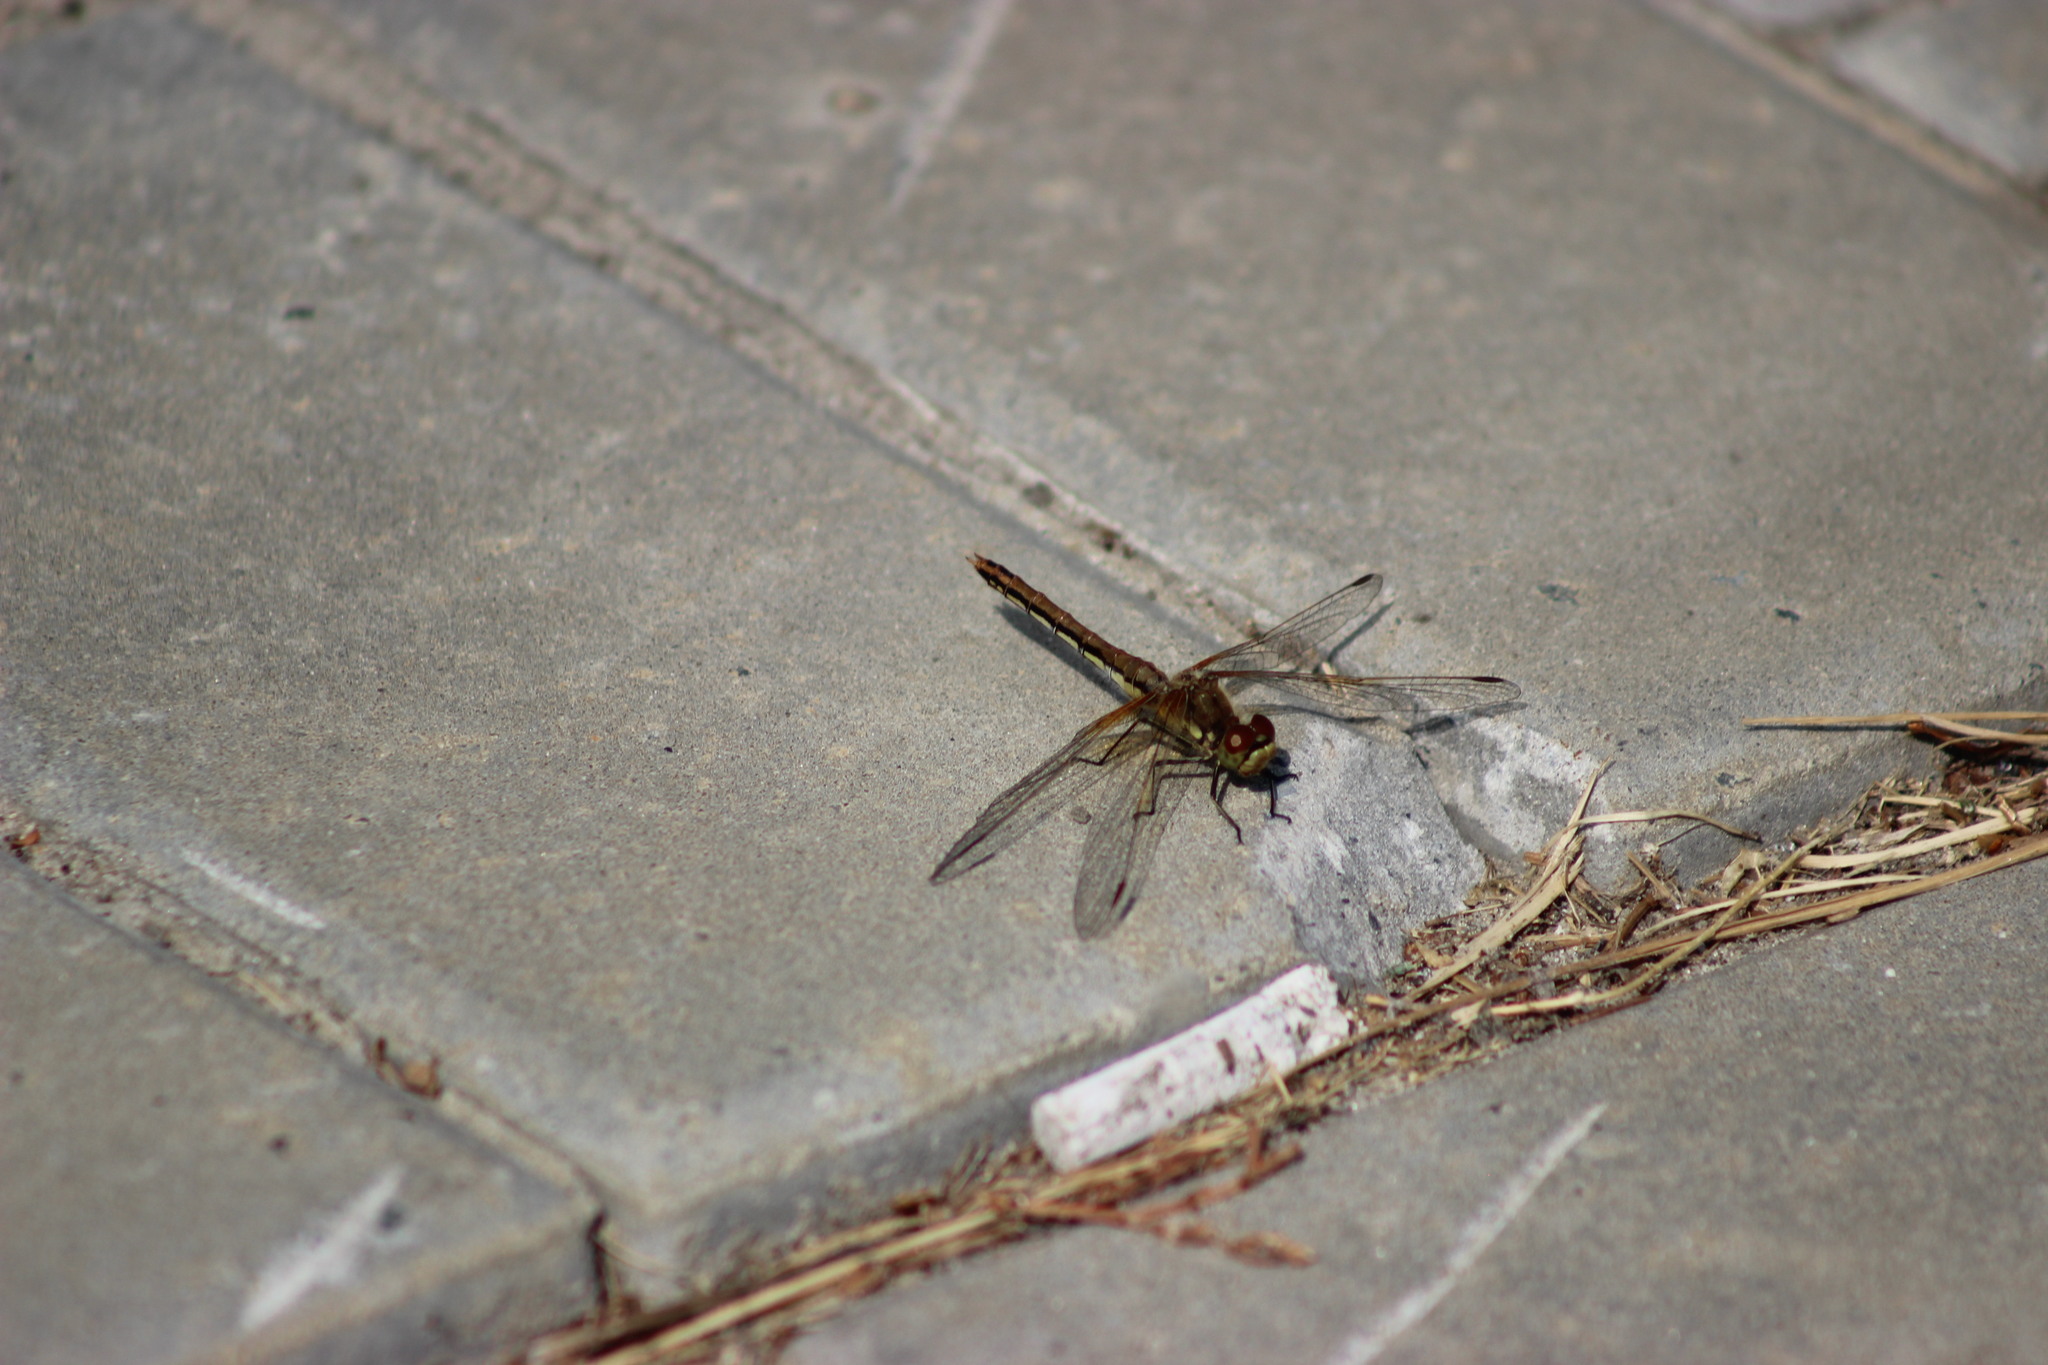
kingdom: Animalia
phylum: Arthropoda
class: Insecta
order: Odonata
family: Libellulidae
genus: Sympetrum
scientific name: Sympetrum flaveolum
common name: Yellow-winged darter
